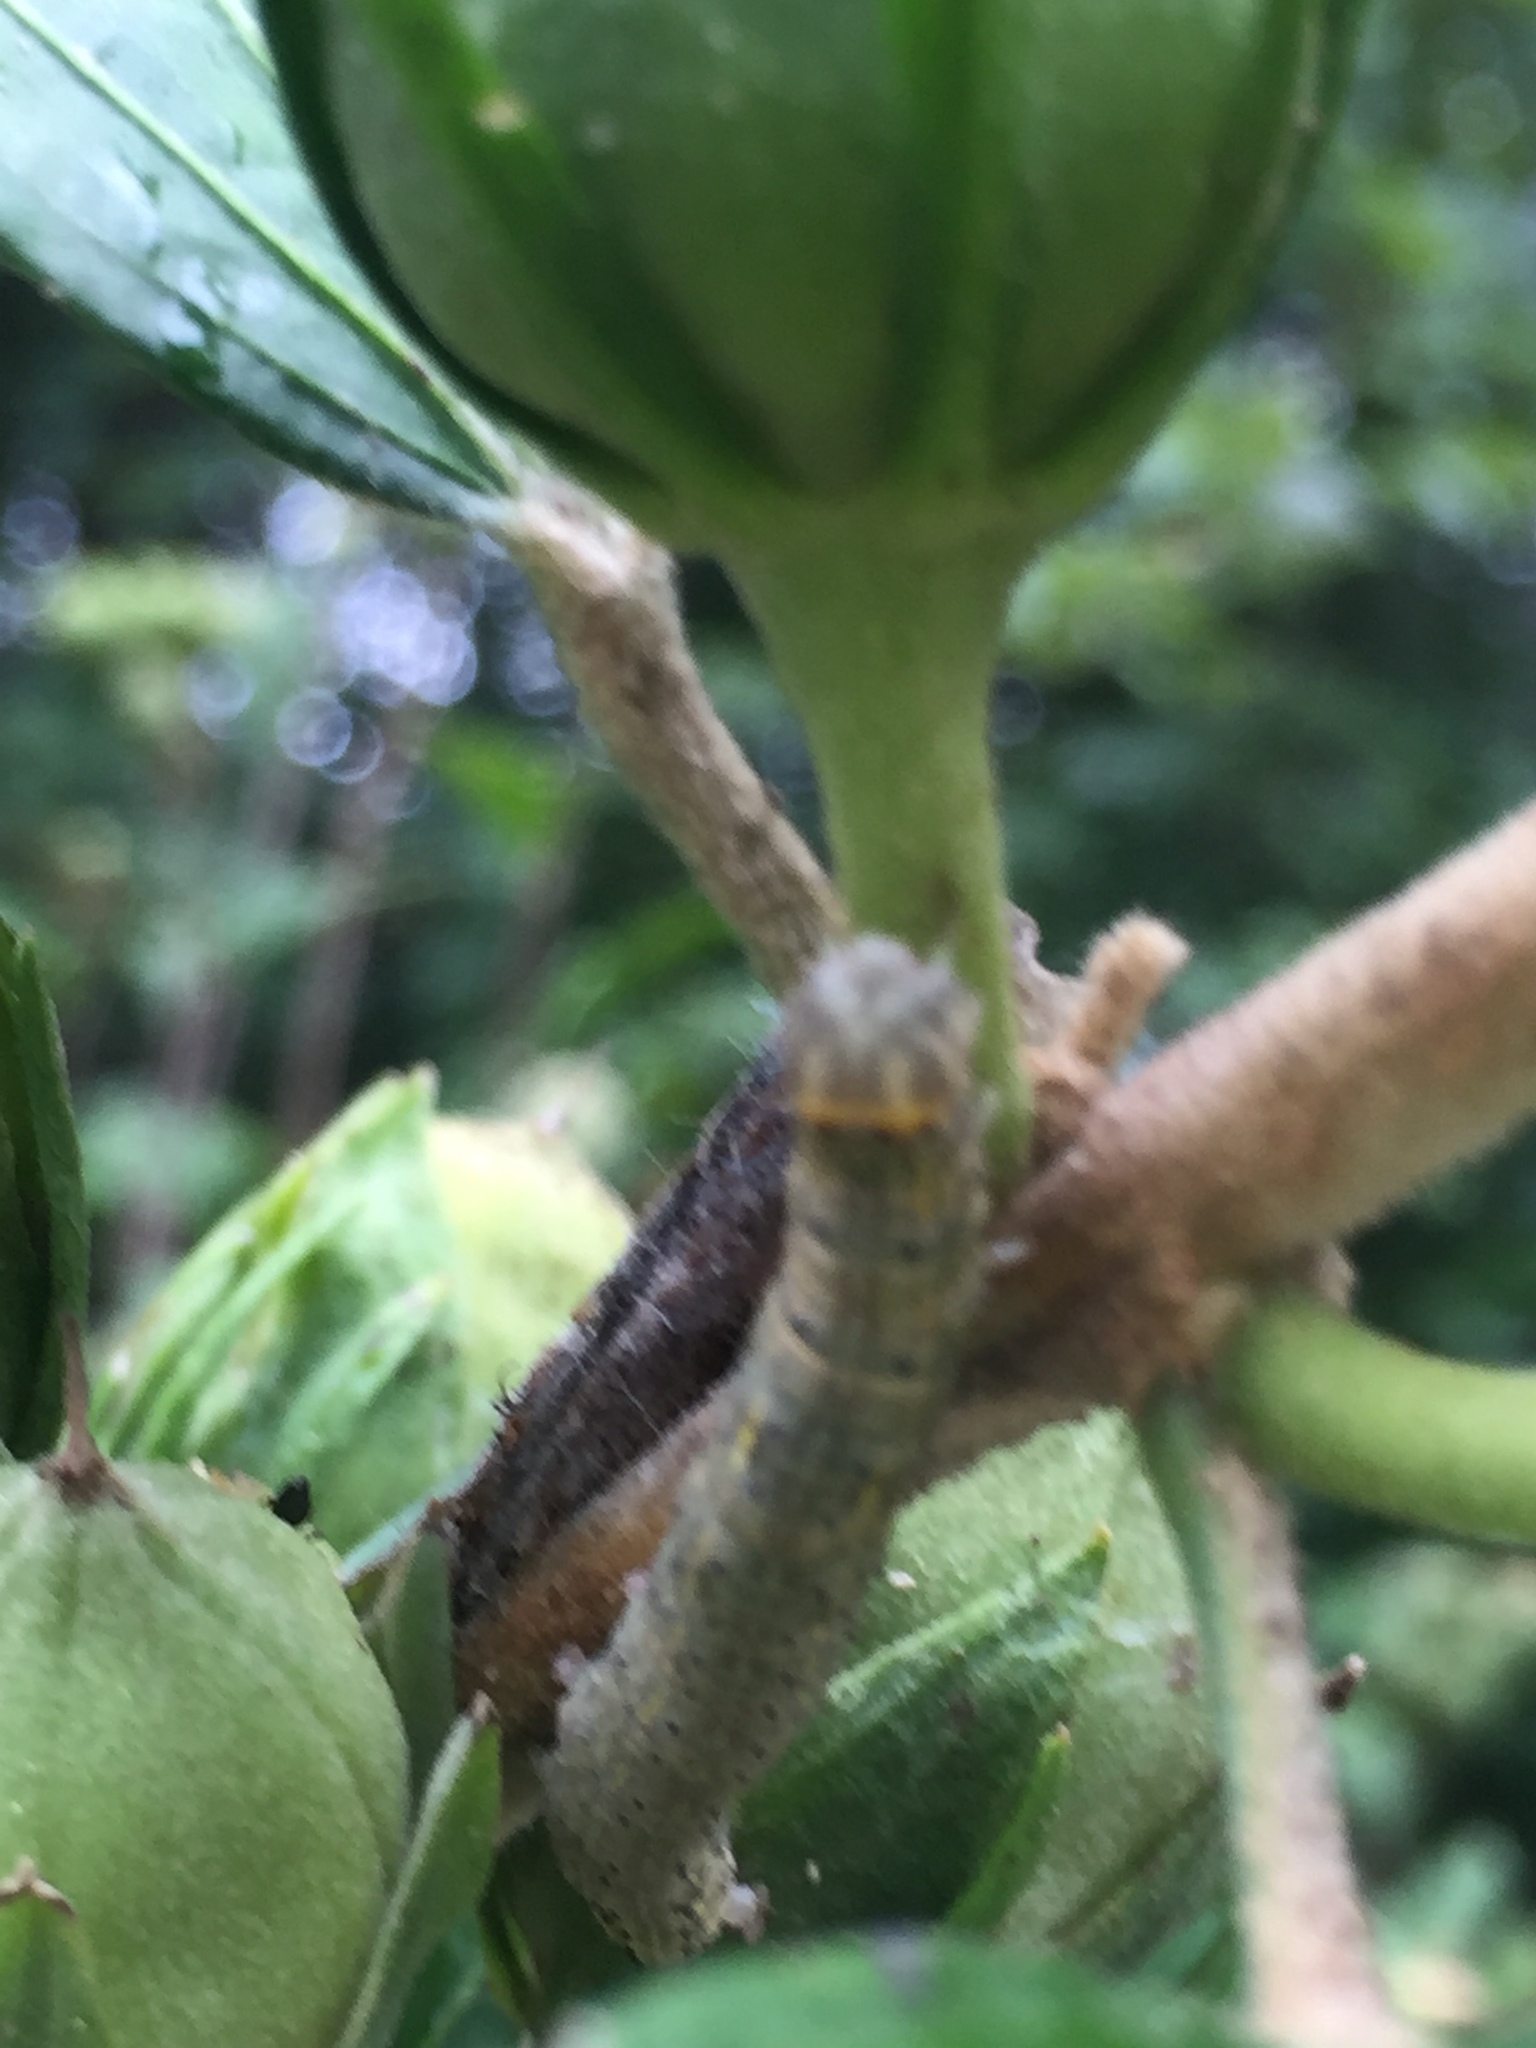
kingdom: Animalia
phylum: Arthropoda
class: Insecta
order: Lepidoptera
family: Erebidae
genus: Rusicada
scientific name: Rusicada privata
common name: Hibiscus leaf caterpillar moth
